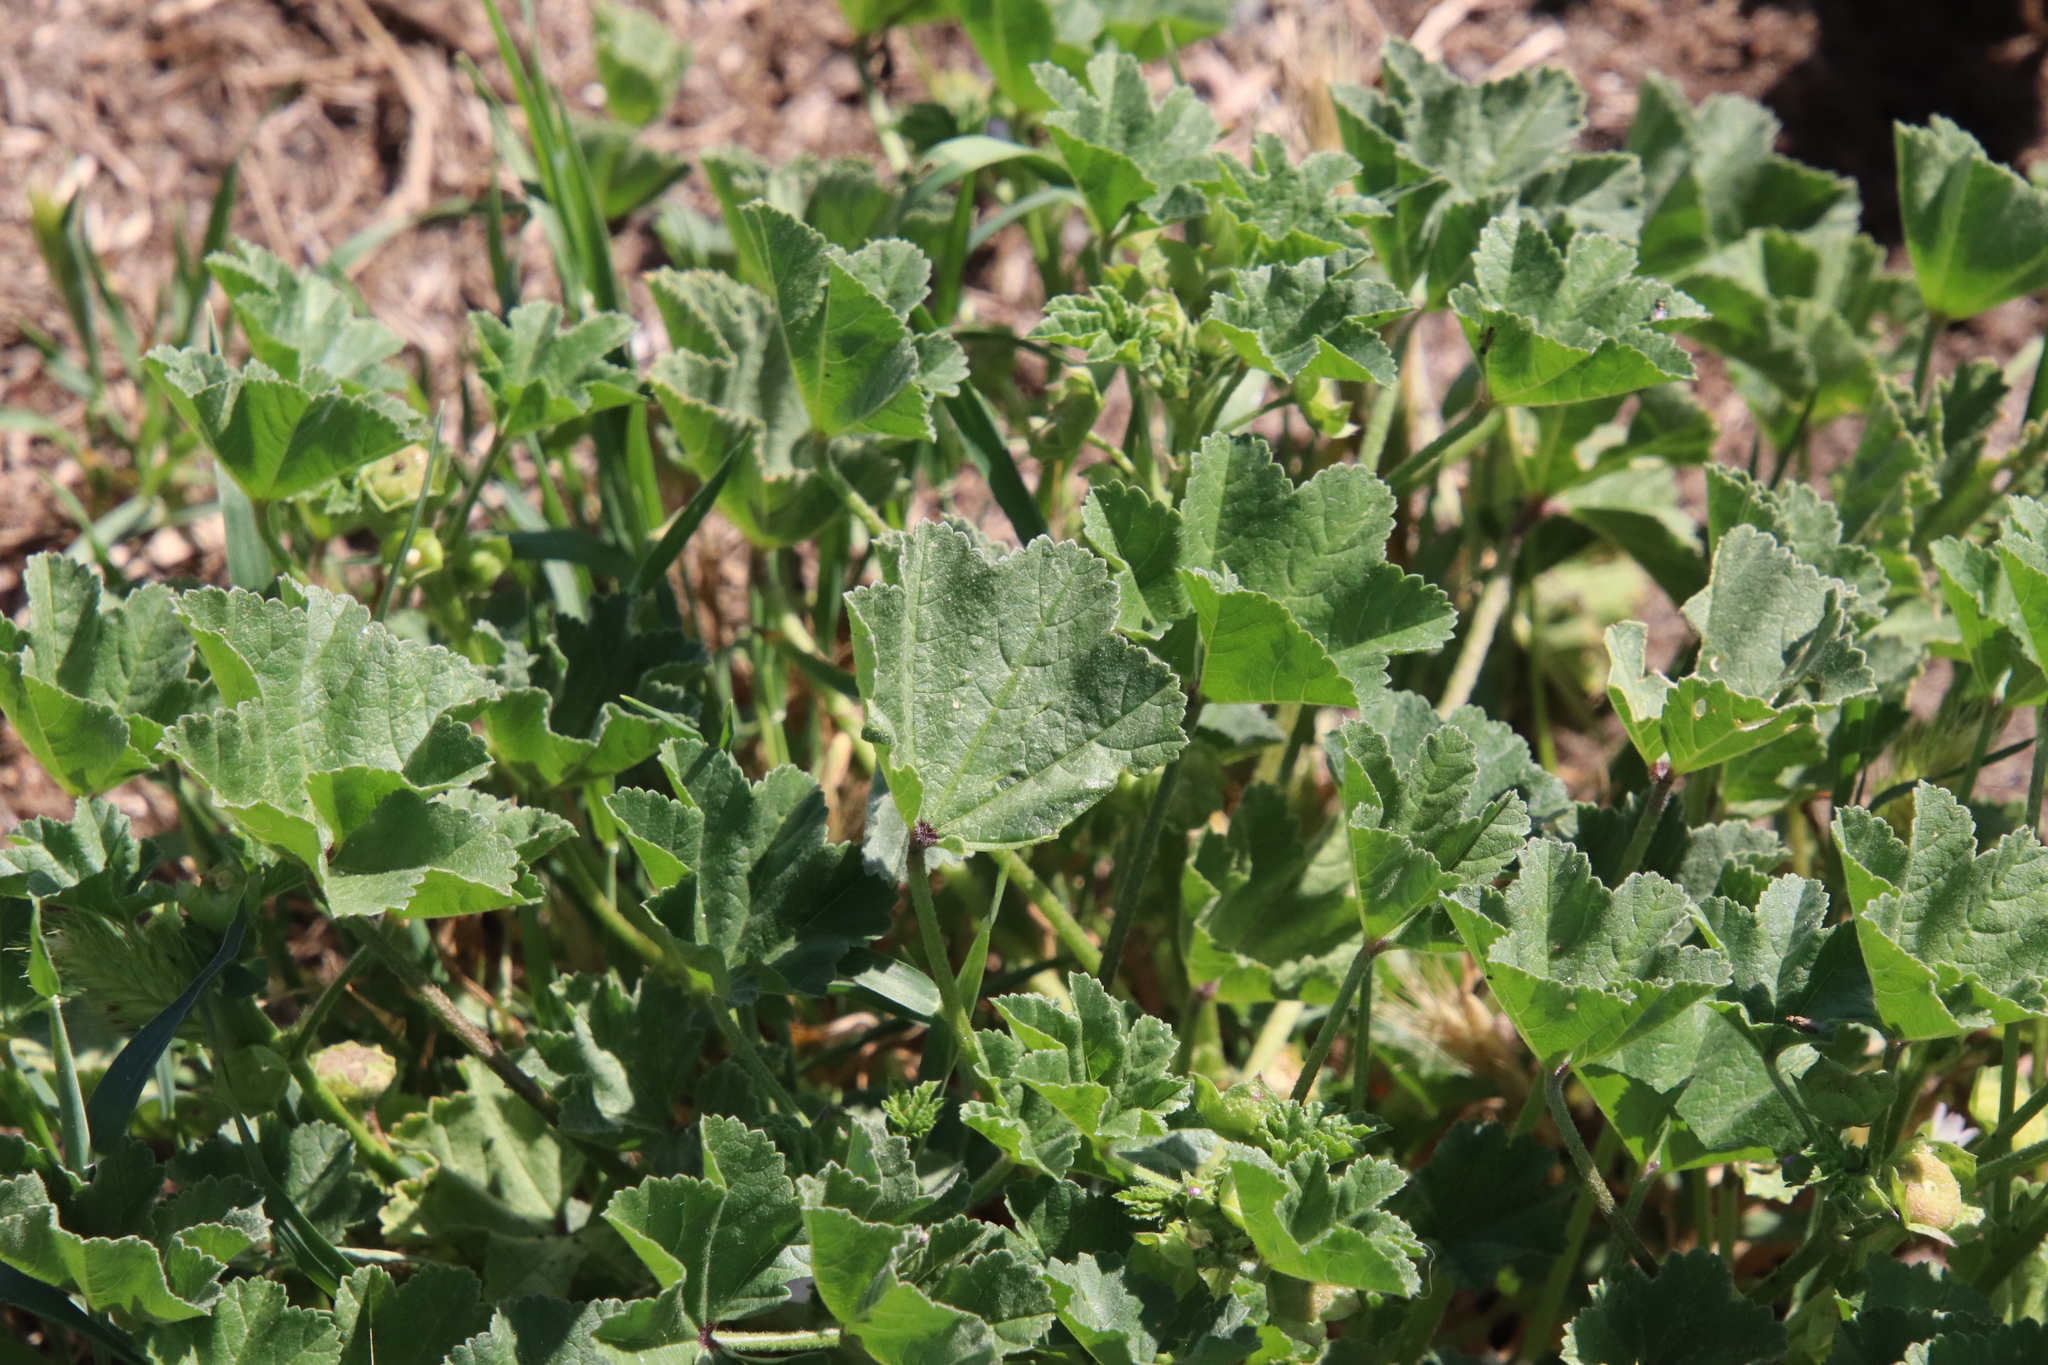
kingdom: Plantae
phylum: Tracheophyta
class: Magnoliopsida
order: Malvales
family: Malvaceae
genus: Malva
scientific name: Malva parviflora
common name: Least mallow
